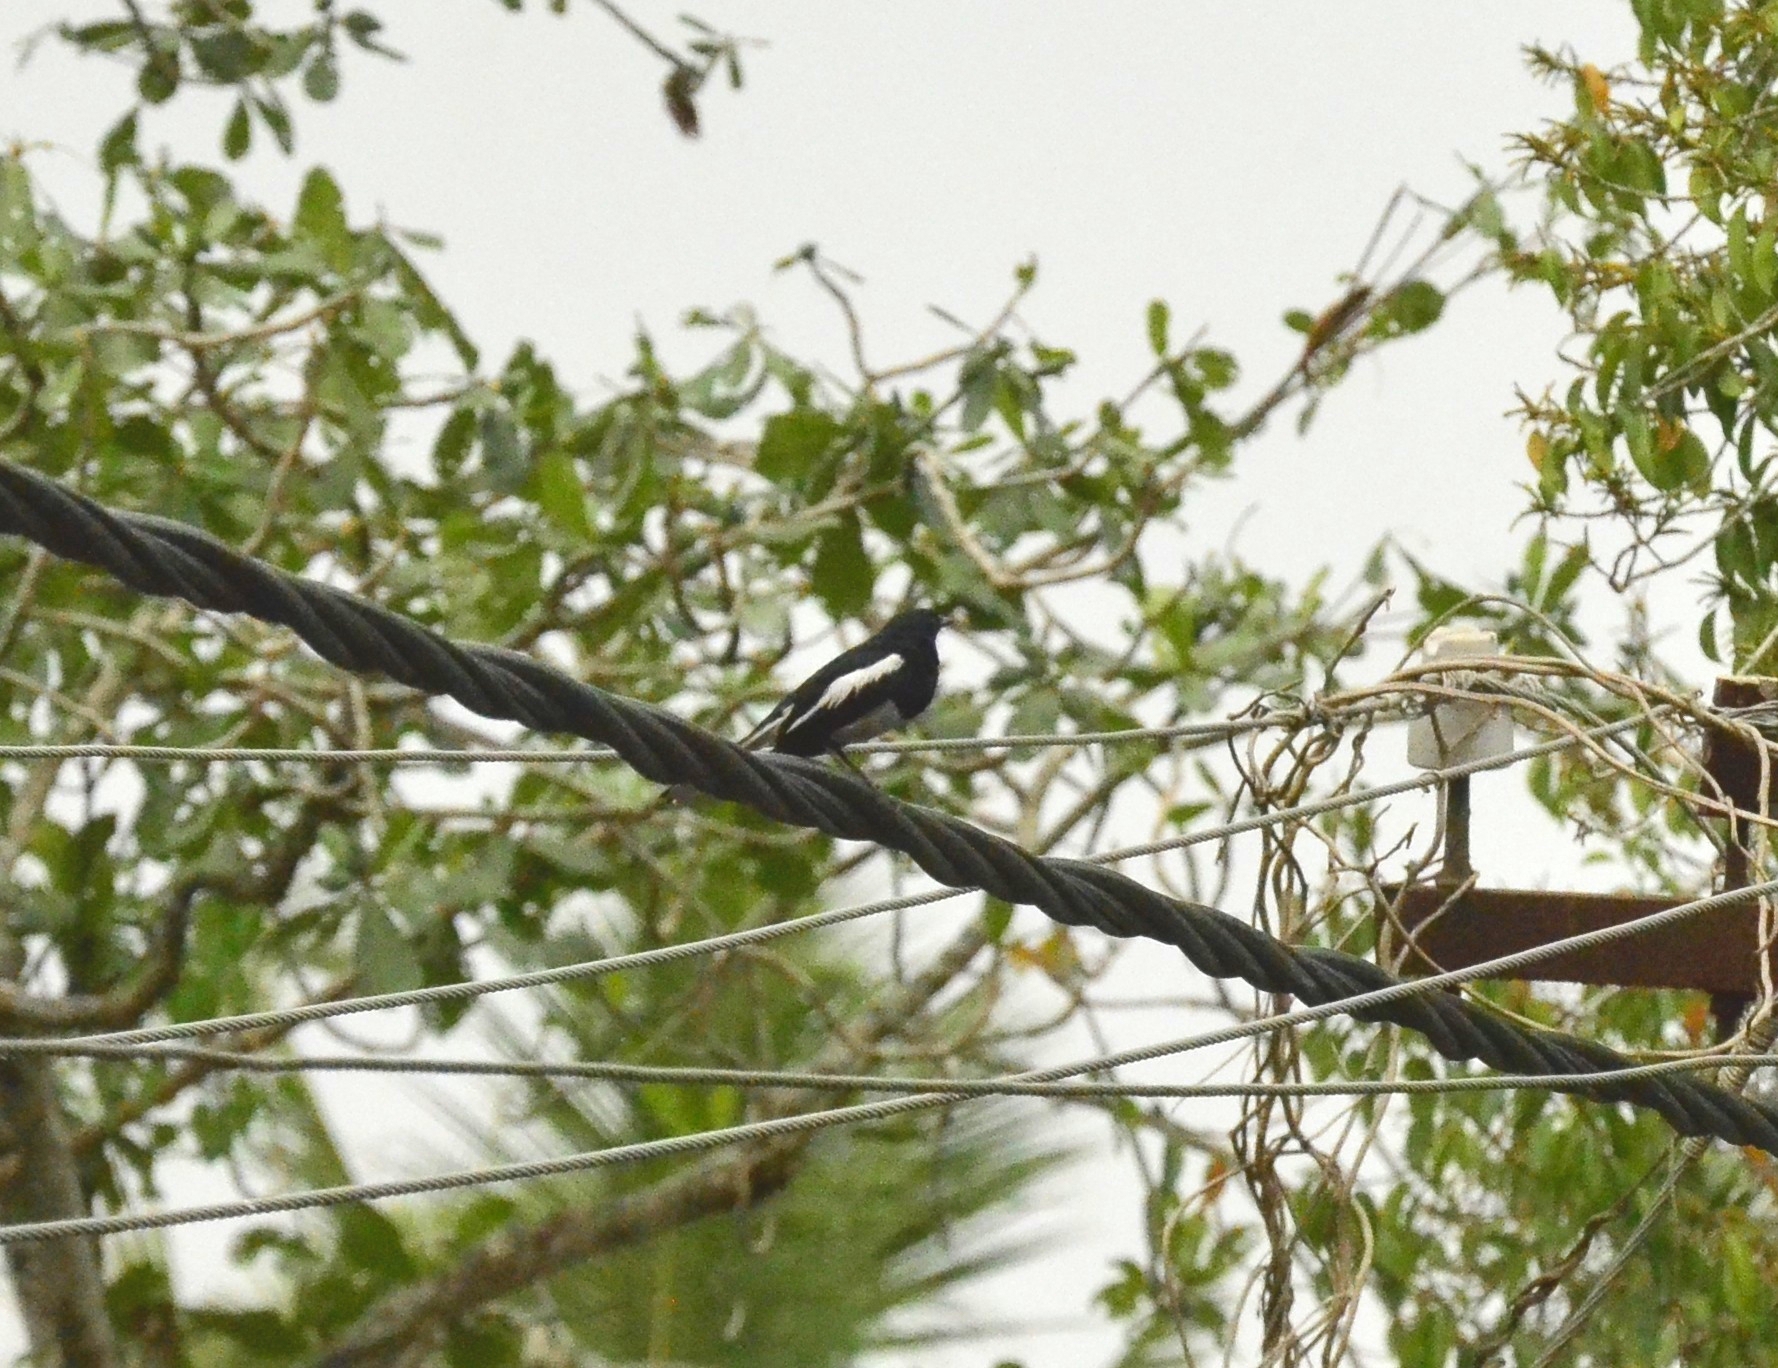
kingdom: Animalia
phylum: Chordata
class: Aves
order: Passeriformes
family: Muscicapidae
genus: Copsychus
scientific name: Copsychus saularis
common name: Oriental magpie-robin
